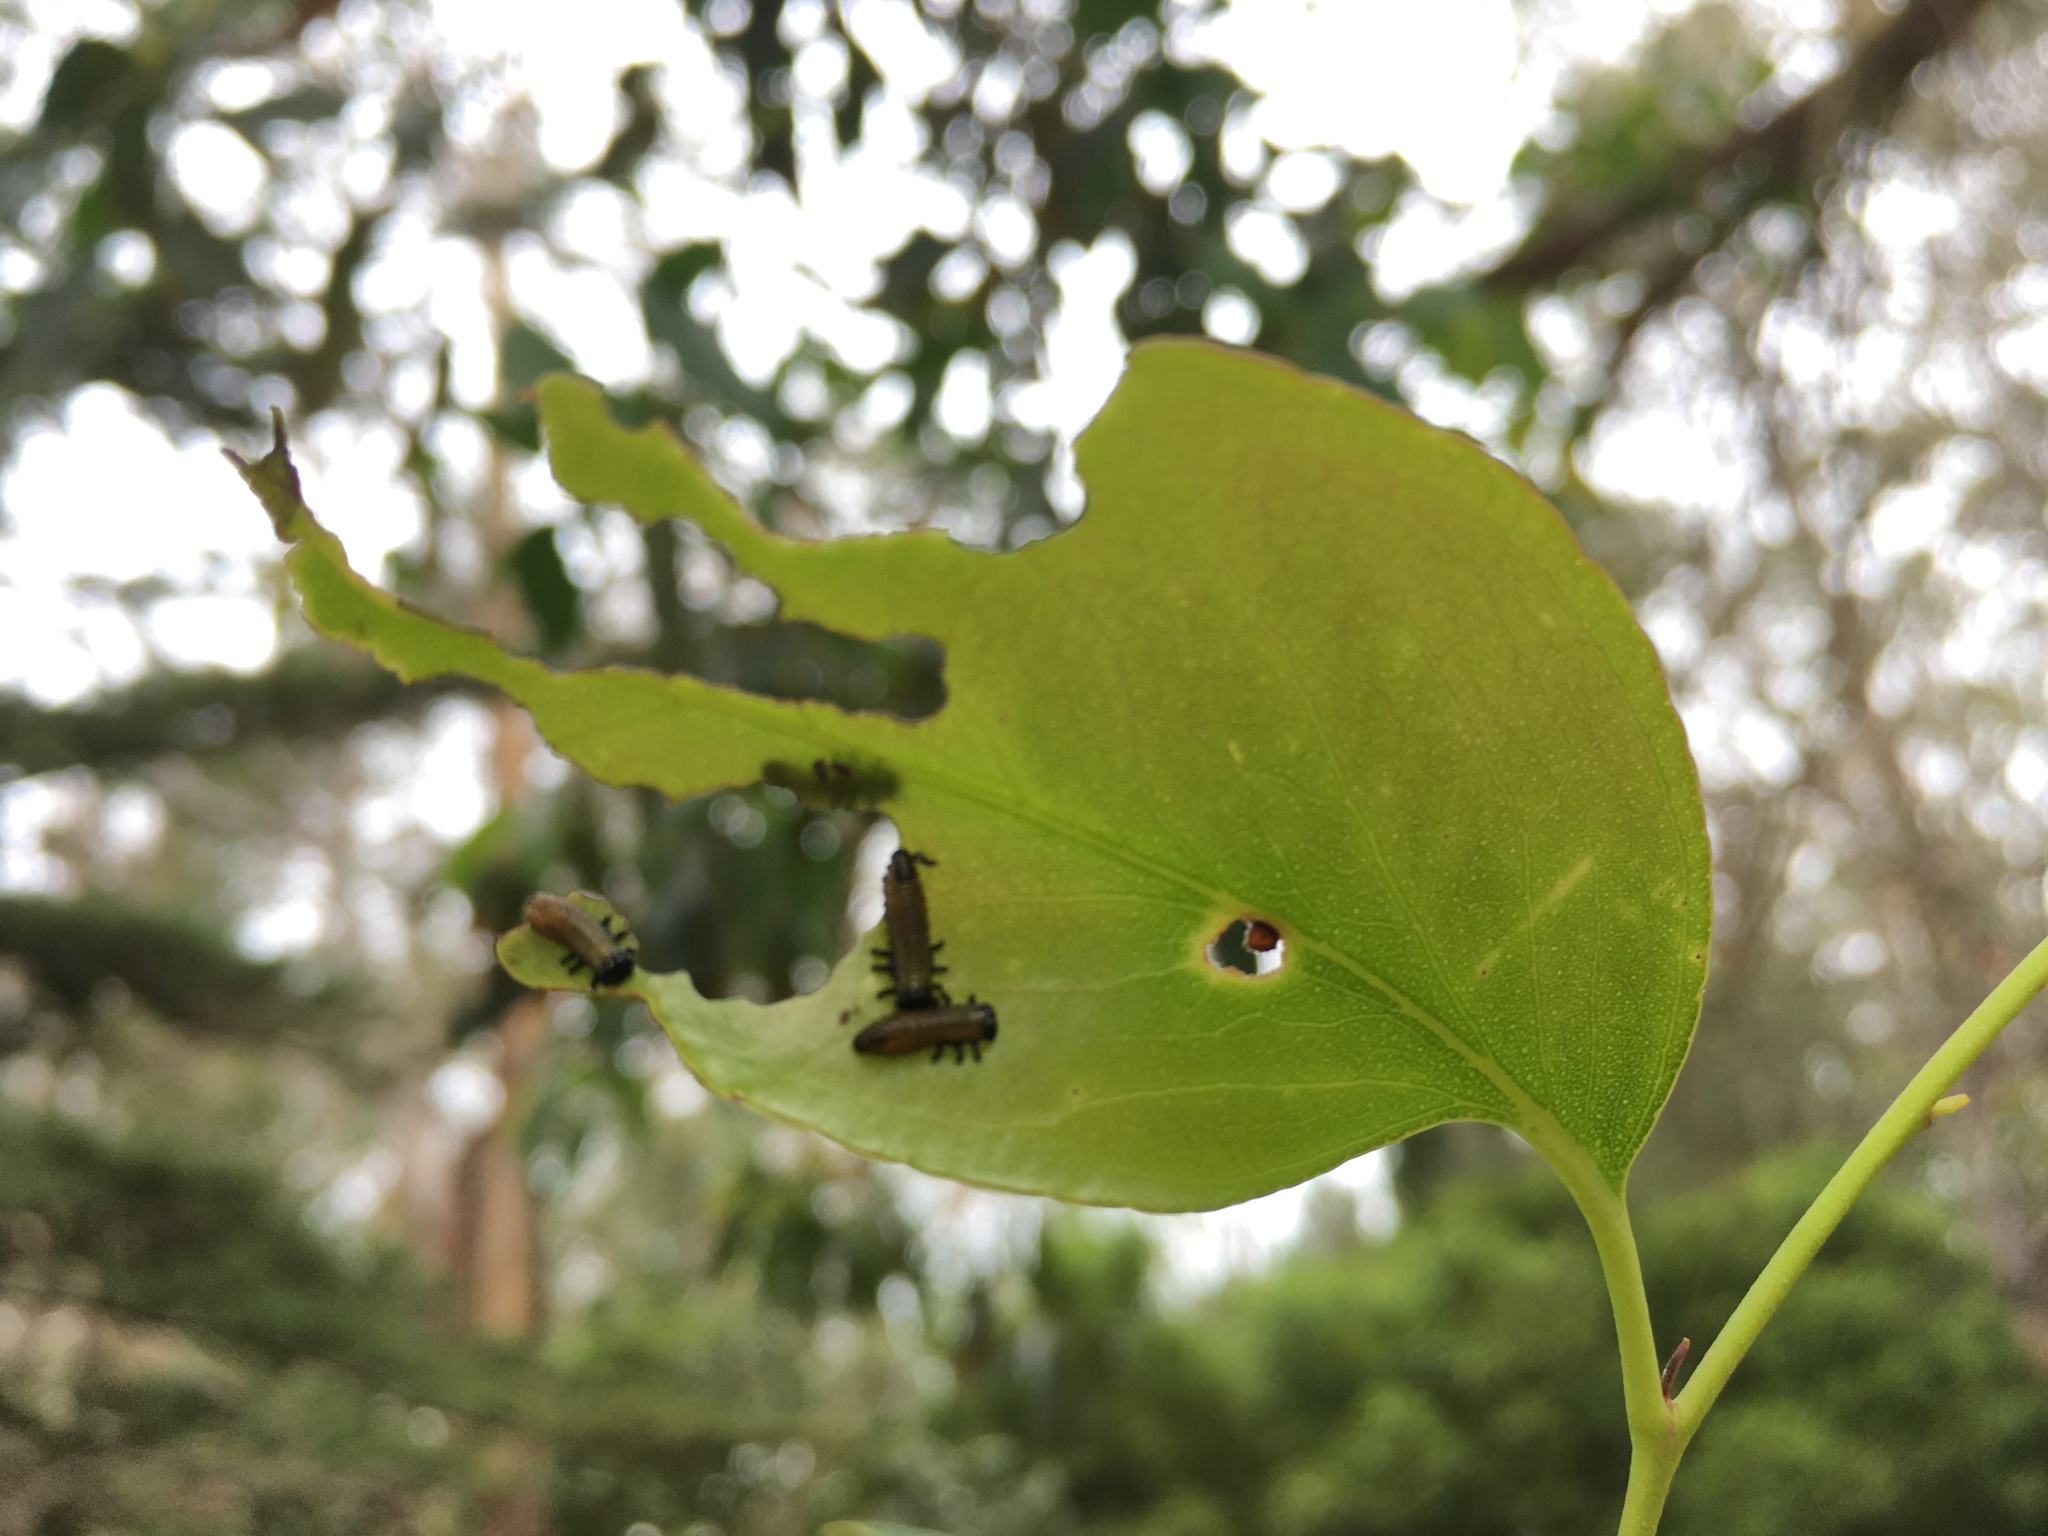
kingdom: Animalia
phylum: Arthropoda
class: Insecta
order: Coleoptera
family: Chrysomelidae
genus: Paropsis
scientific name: Paropsis charybdis
